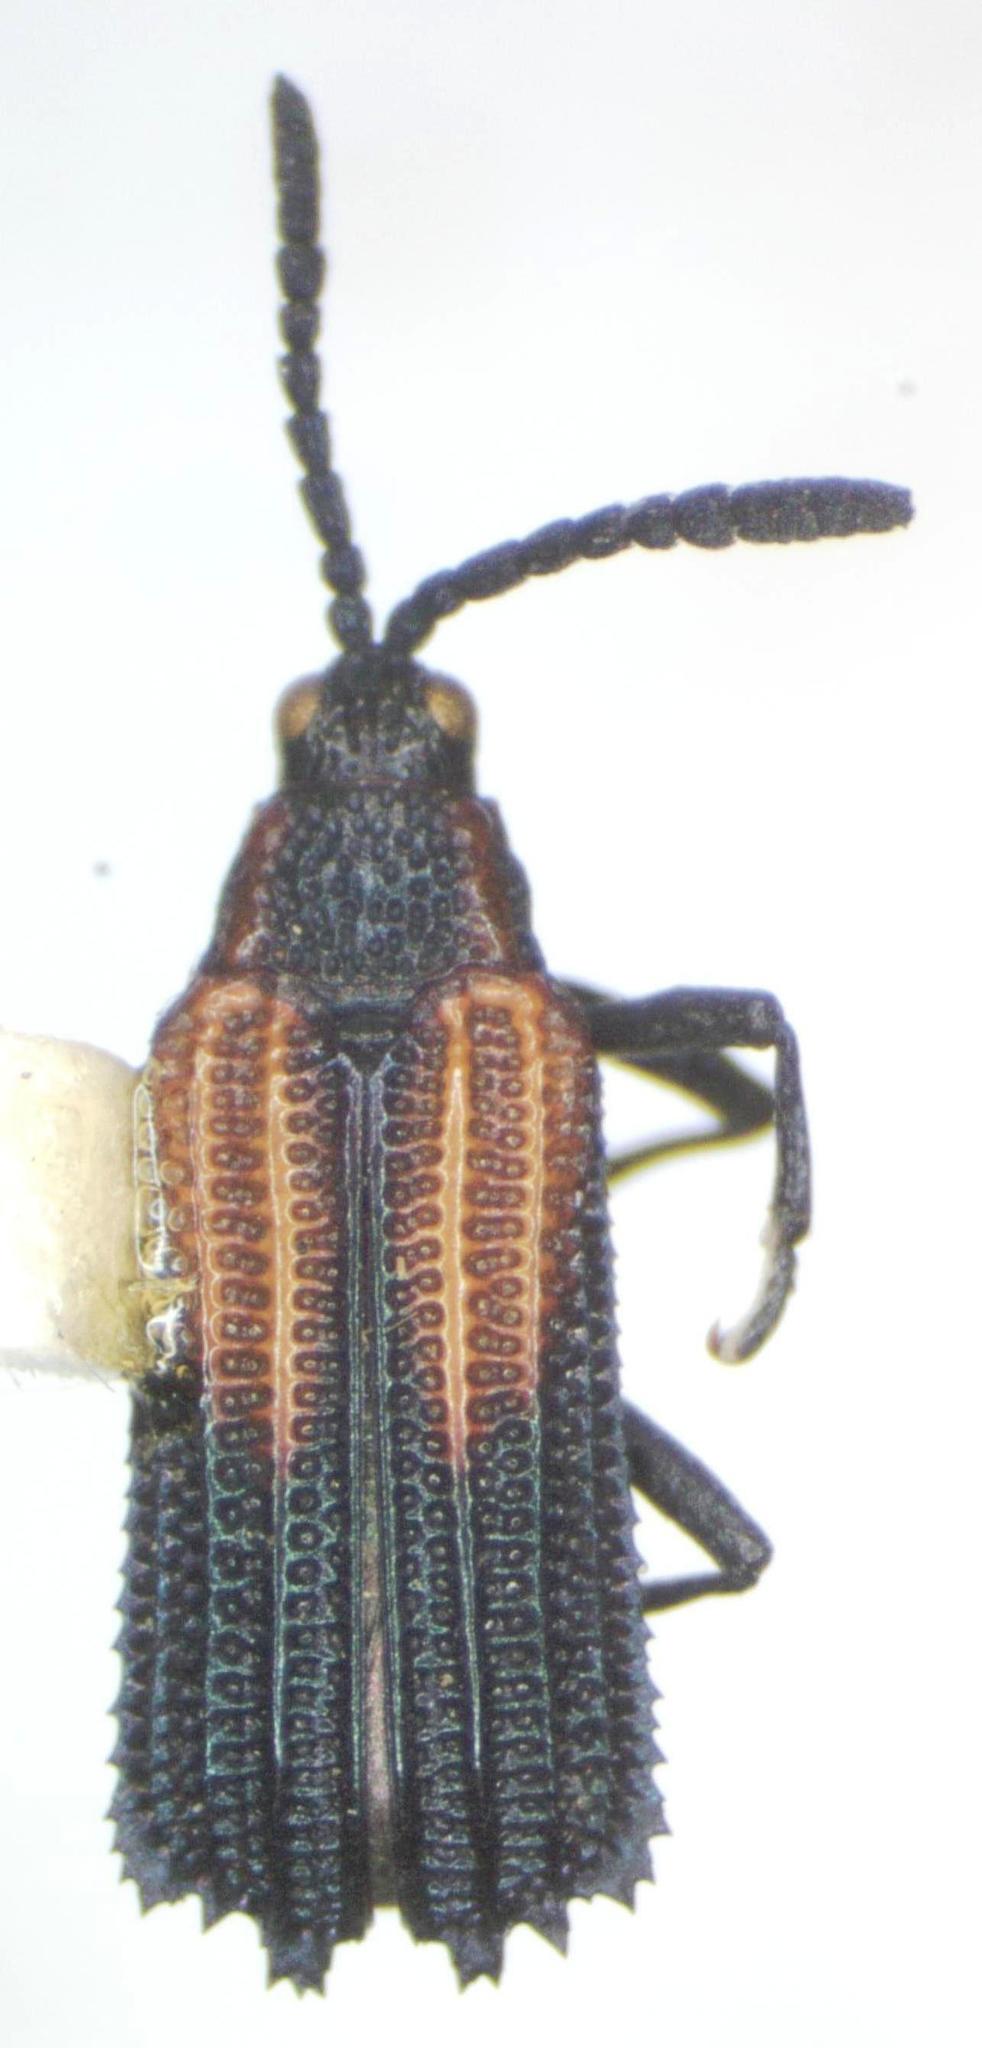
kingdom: Animalia
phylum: Arthropoda
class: Insecta
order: Coleoptera
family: Chrysomelidae
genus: Pentispa
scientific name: Pentispa clarkella
